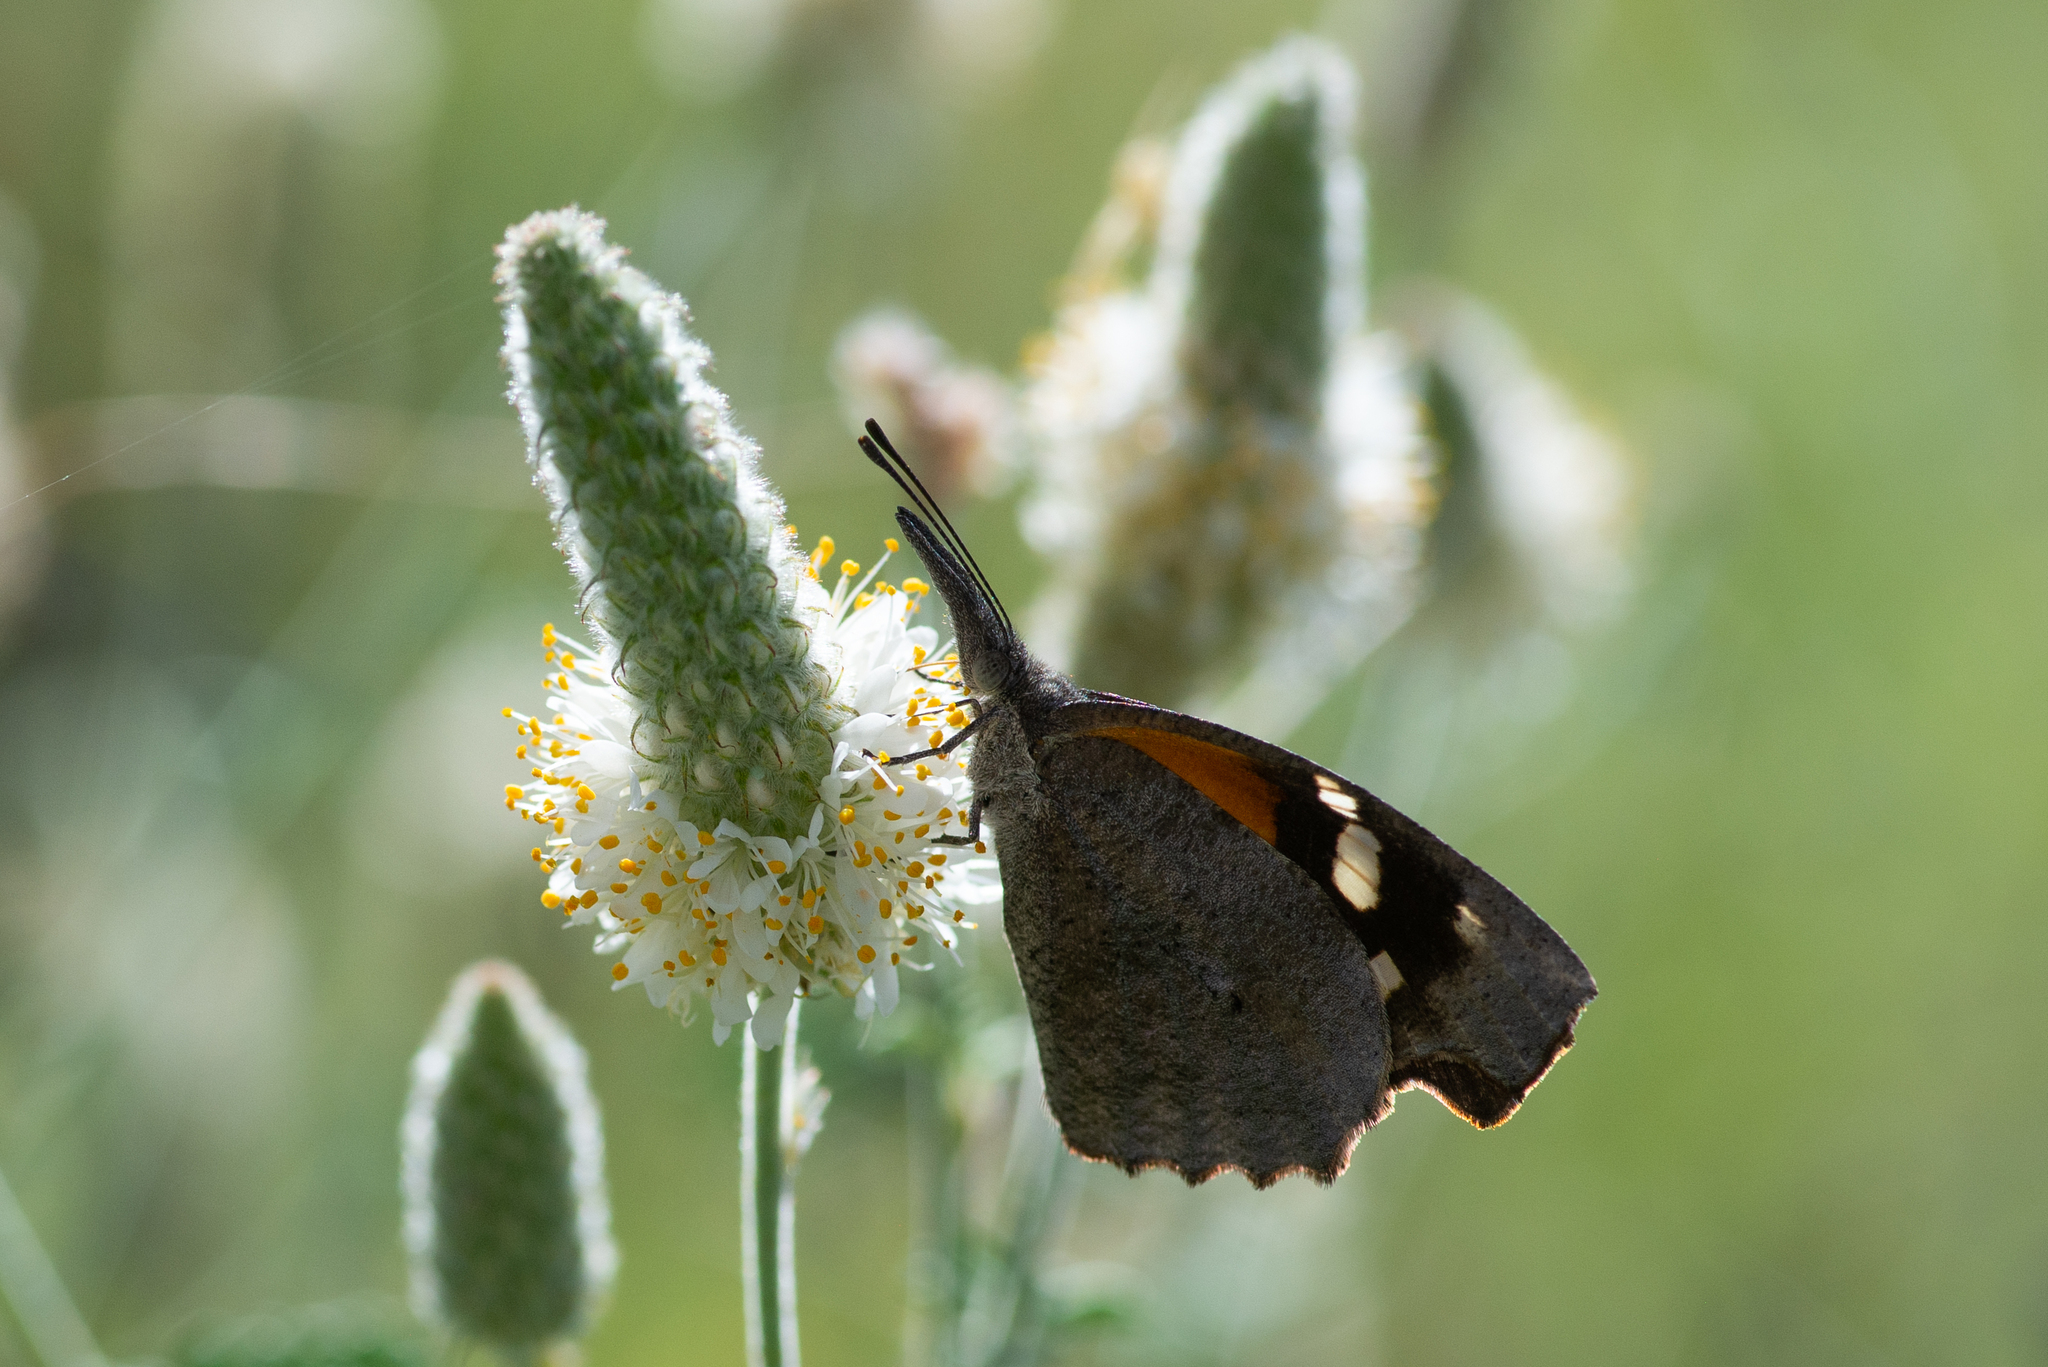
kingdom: Animalia
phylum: Arthropoda
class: Insecta
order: Lepidoptera
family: Nymphalidae
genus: Libytheana
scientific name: Libytheana carinenta
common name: American snout
